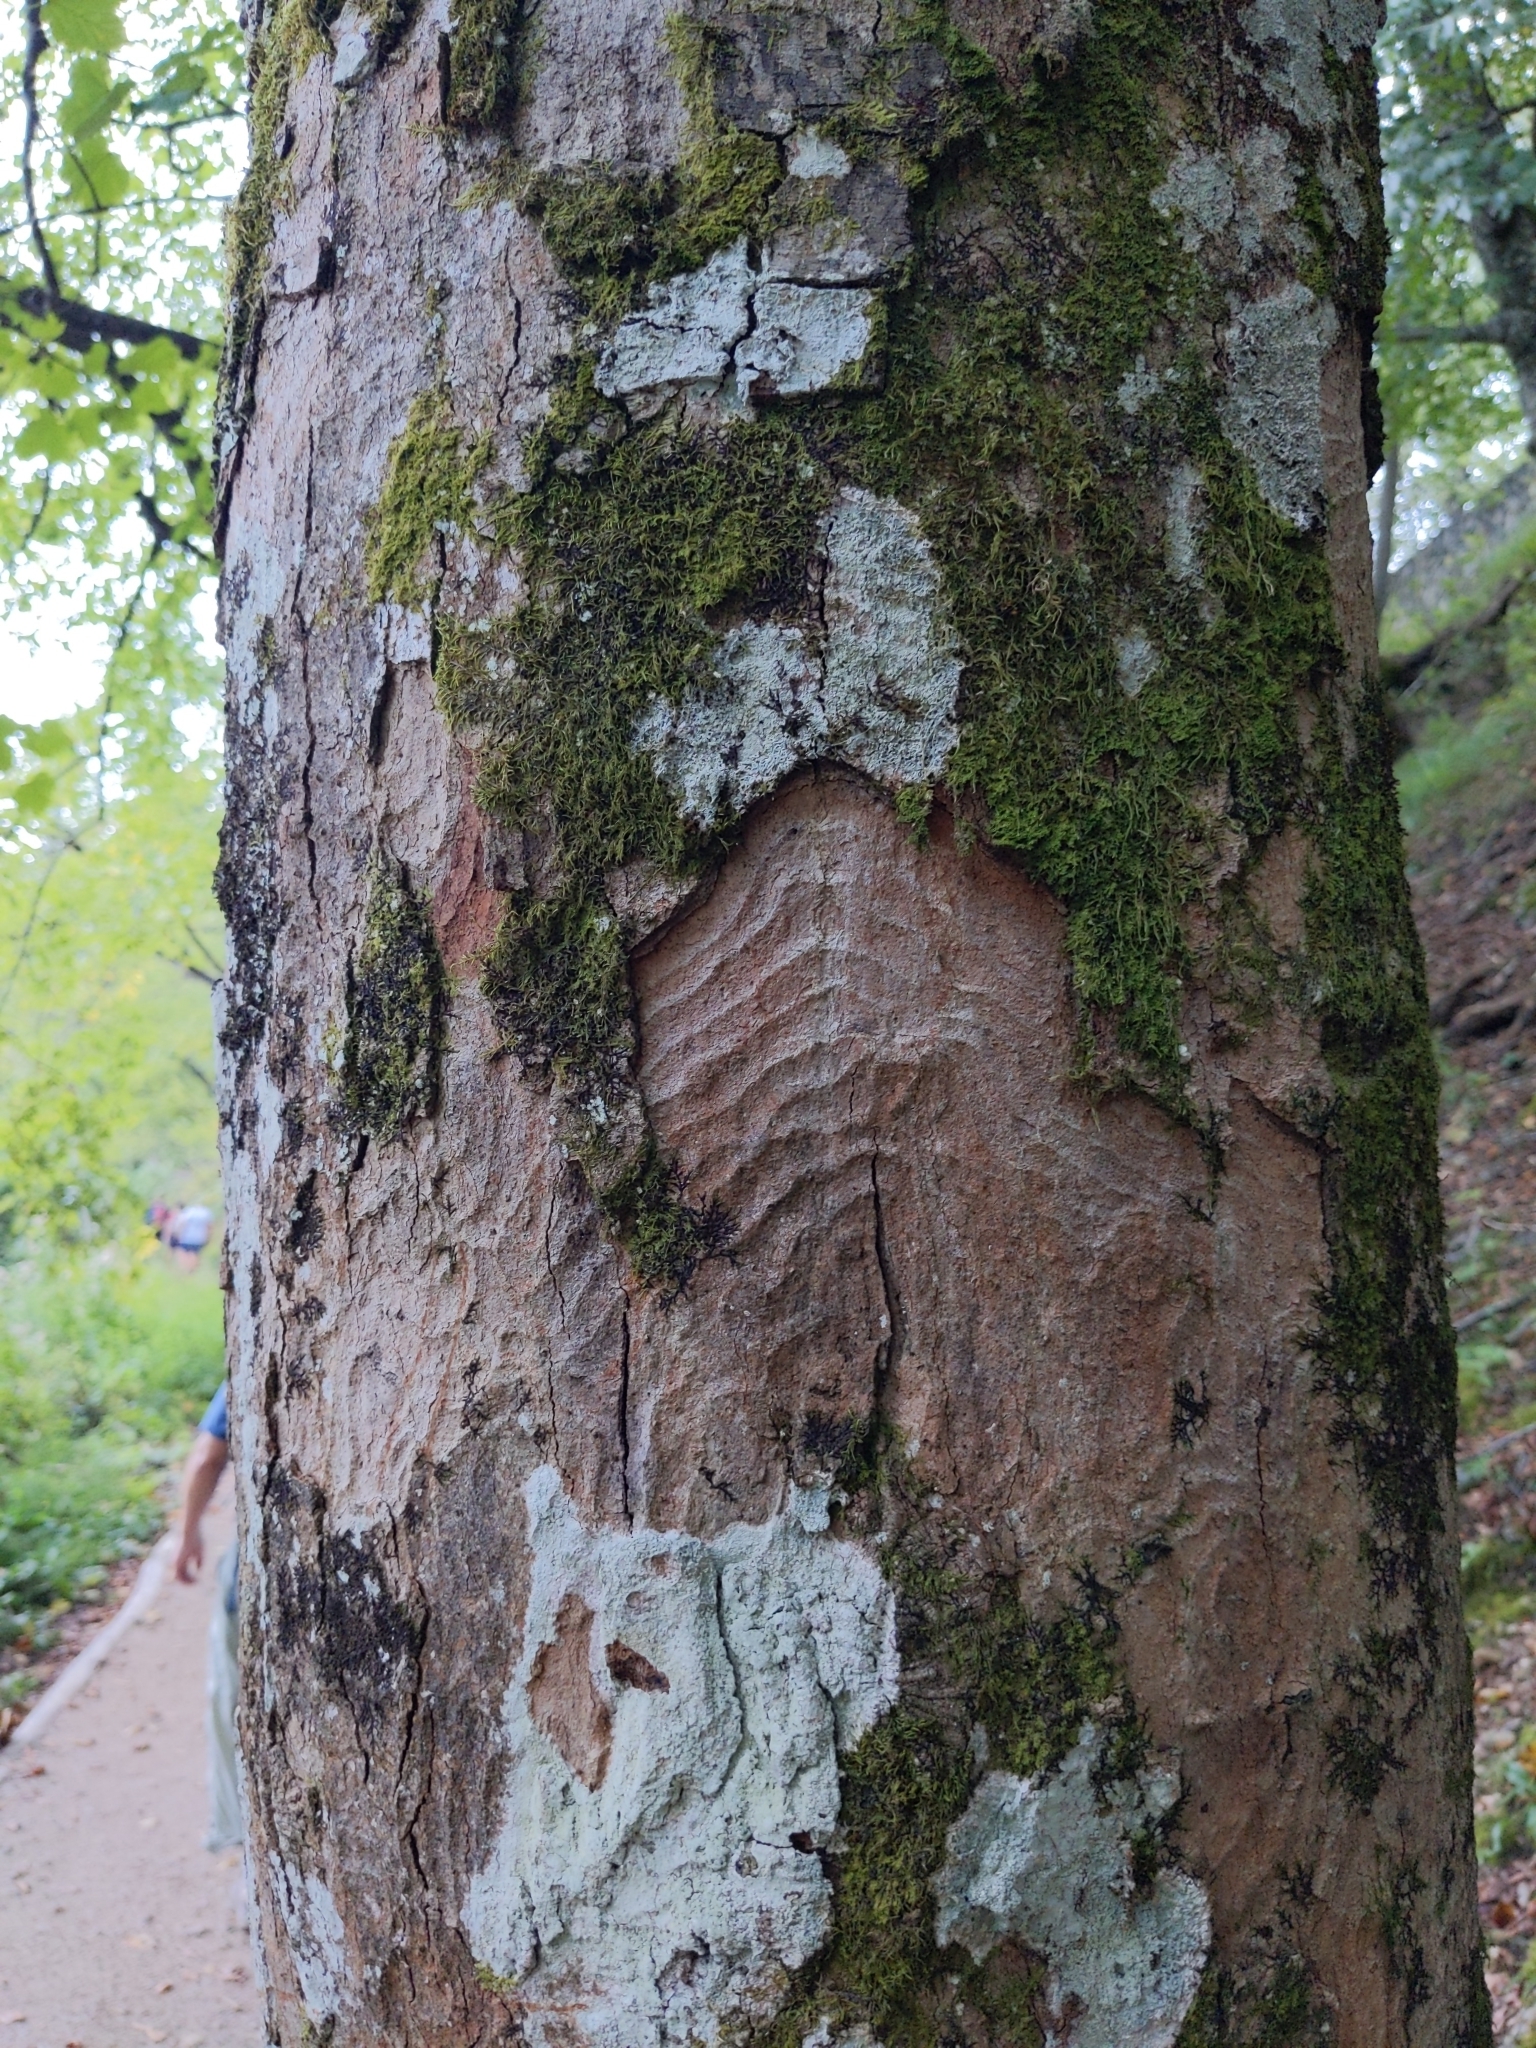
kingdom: Plantae
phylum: Tracheophyta
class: Magnoliopsida
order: Sapindales
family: Sapindaceae
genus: Acer
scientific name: Acer opalus
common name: Italian maple
